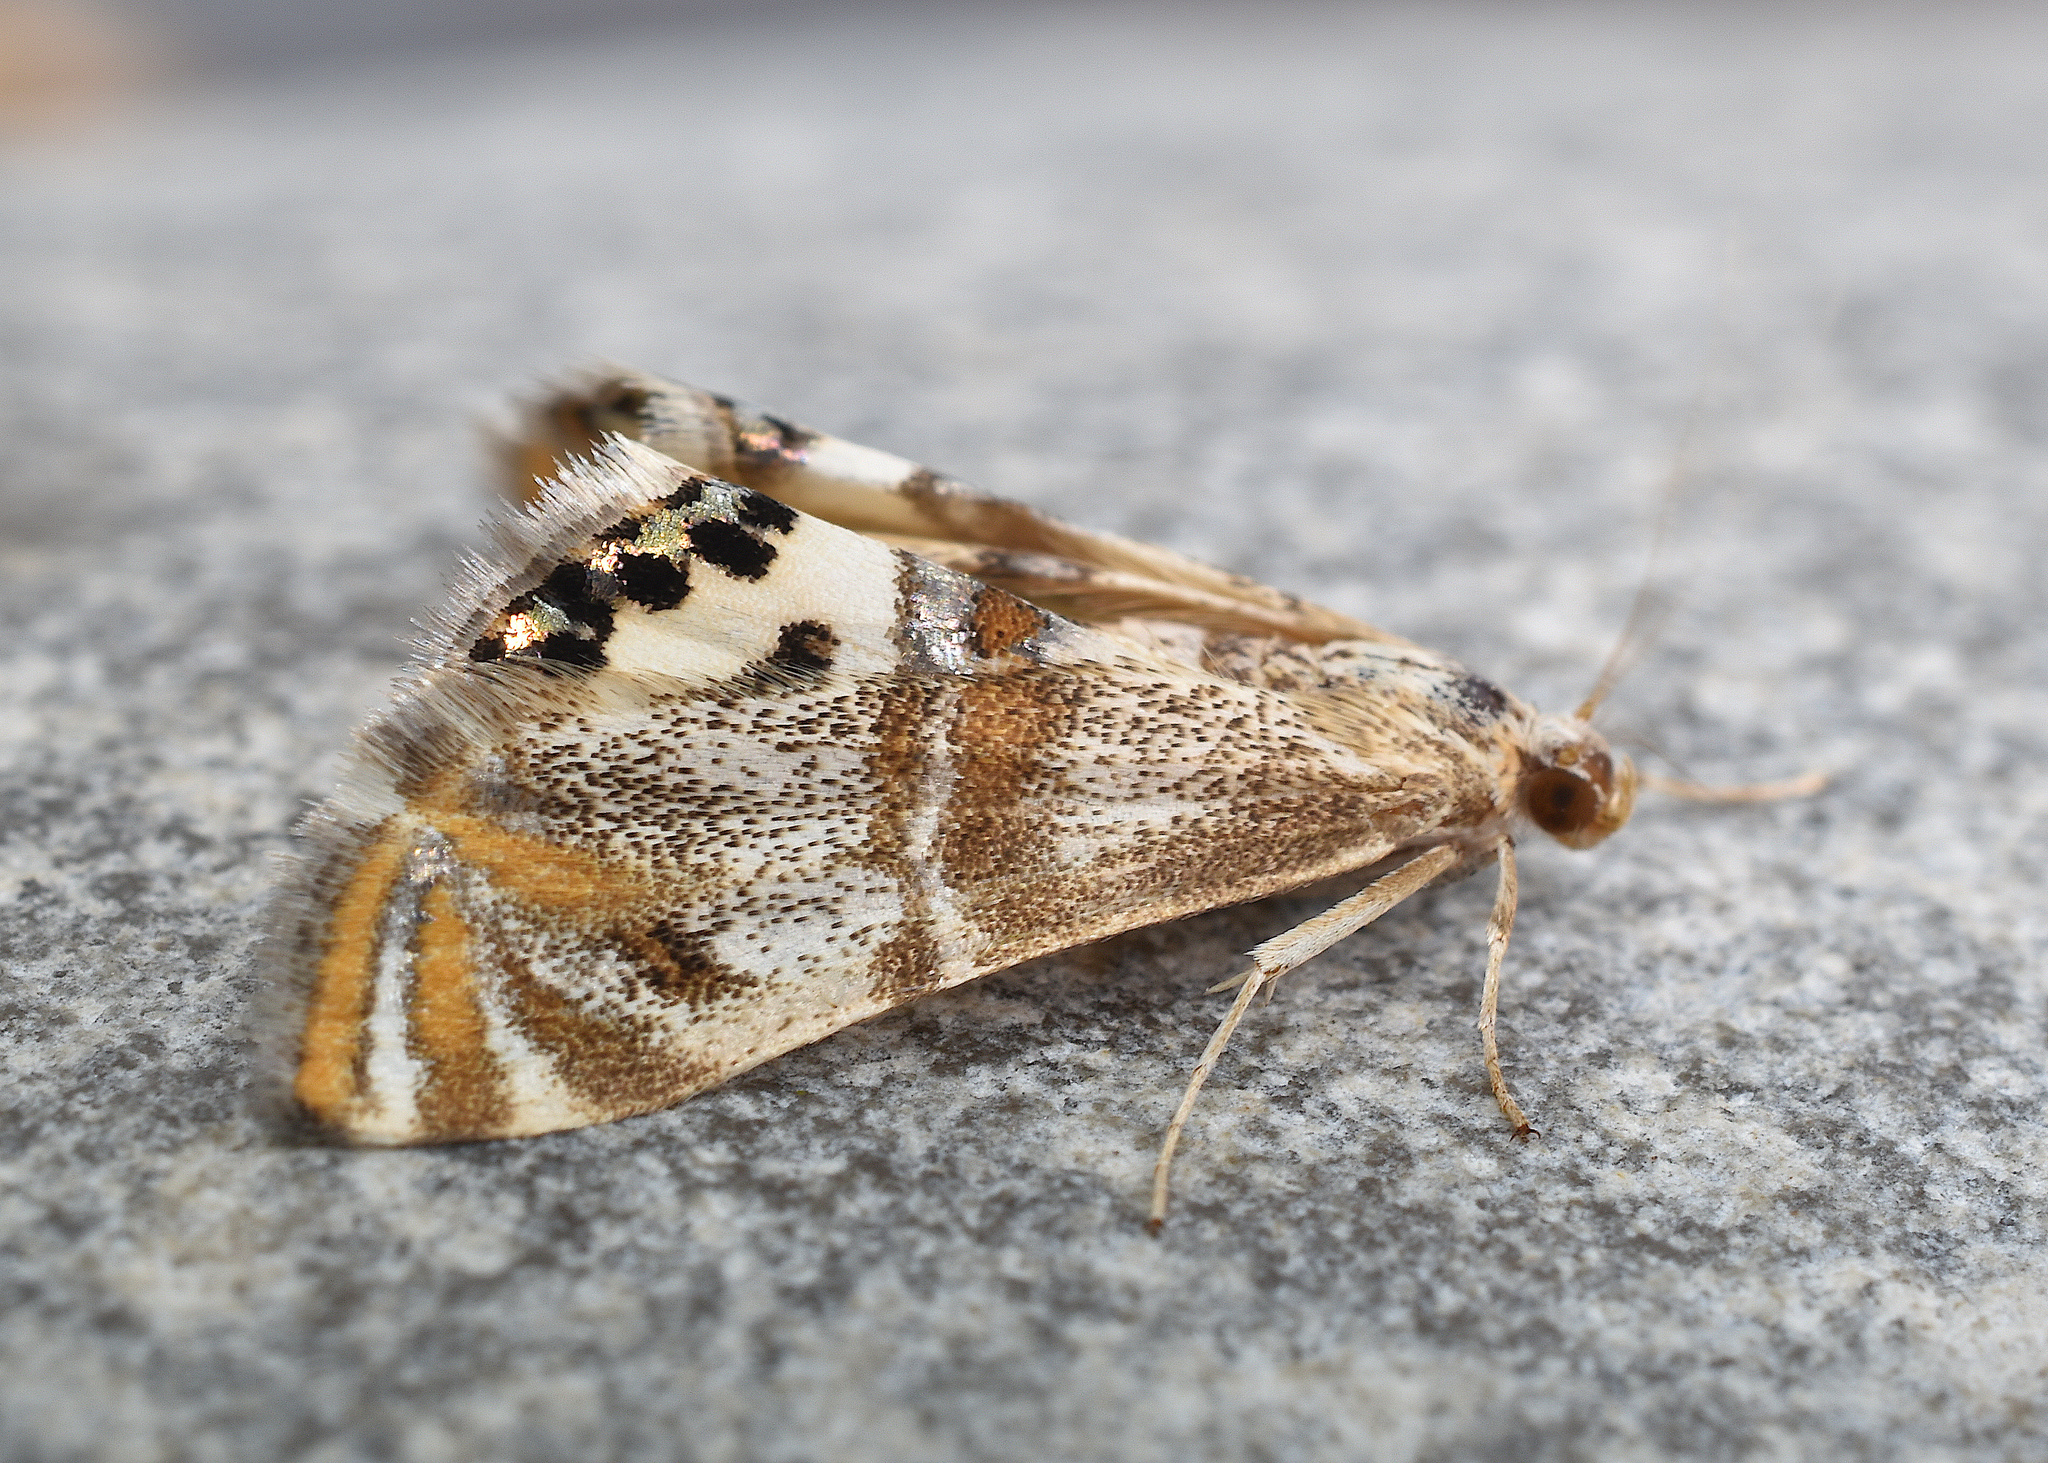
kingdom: Animalia
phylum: Arthropoda
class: Insecta
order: Lepidoptera
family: Crambidae
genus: Petrophila
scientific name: Petrophila bifascialis
